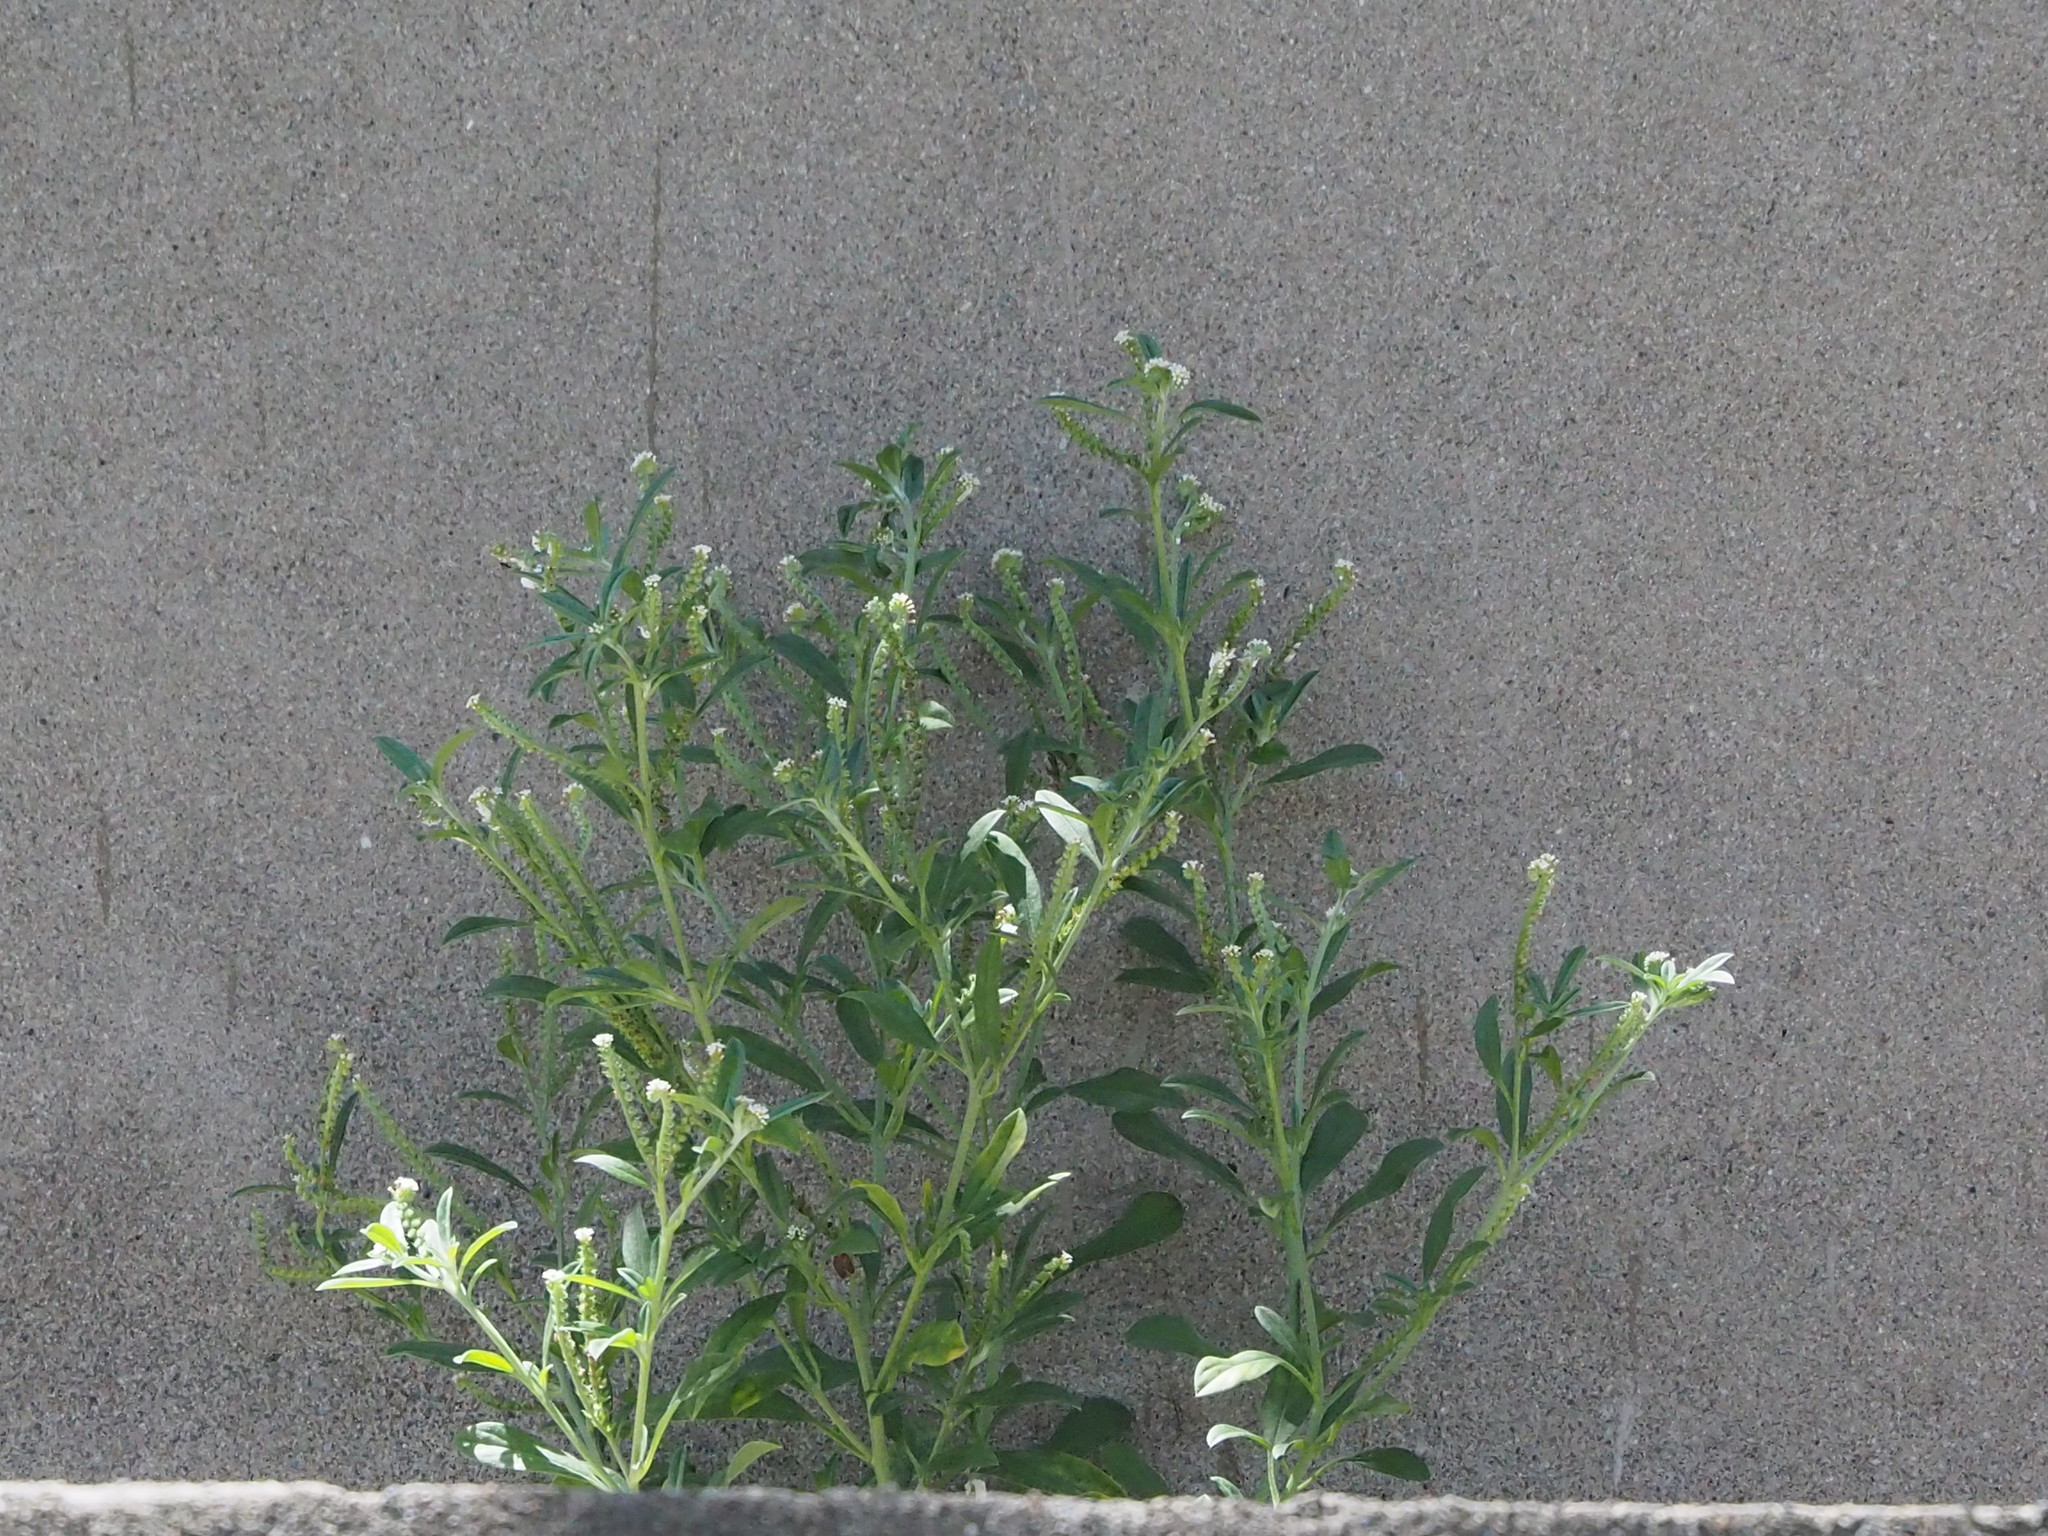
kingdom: Plantae
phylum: Tracheophyta
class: Magnoliopsida
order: Boraginales
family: Heliotropiaceae
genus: Euploca
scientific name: Euploca procumbens
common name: Fourspike heliotrope
